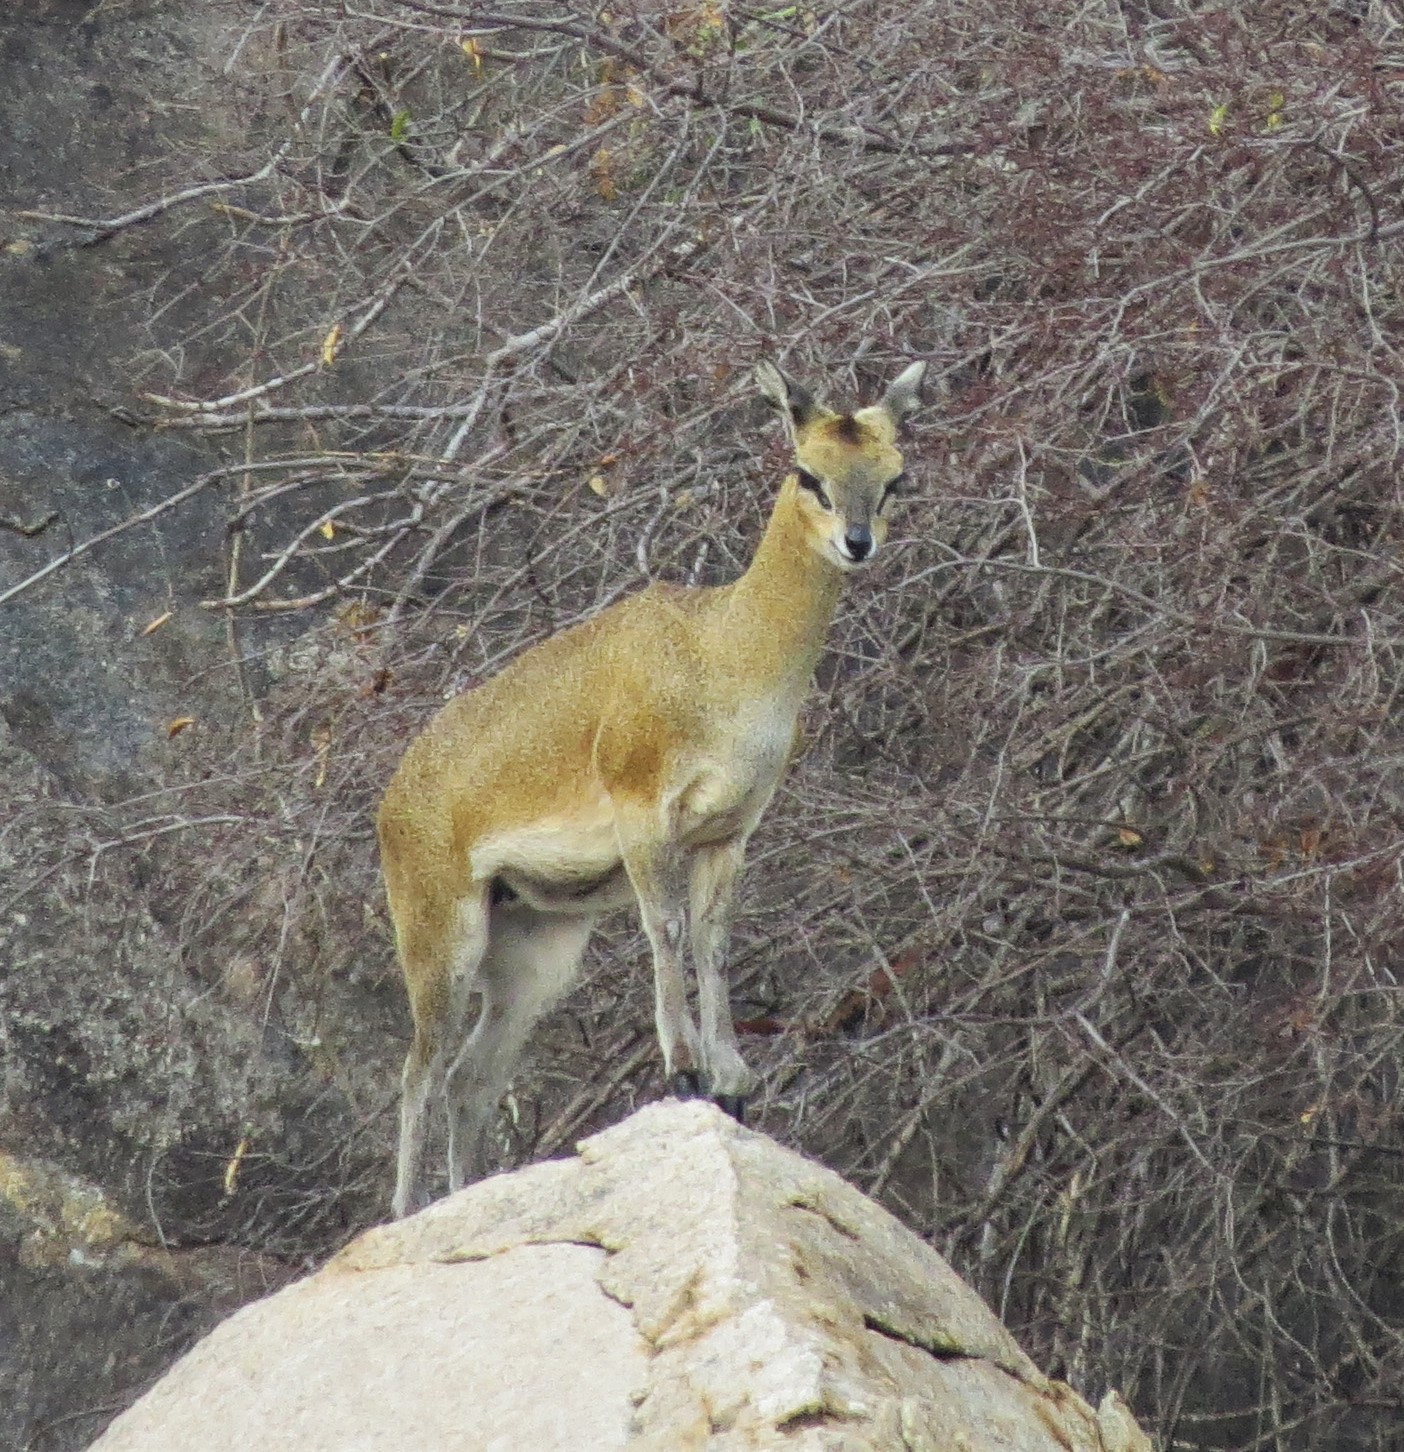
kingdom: Animalia
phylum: Chordata
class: Mammalia
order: Artiodactyla
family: Bovidae
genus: Oreotragus
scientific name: Oreotragus oreotragus
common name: Klipspringer
